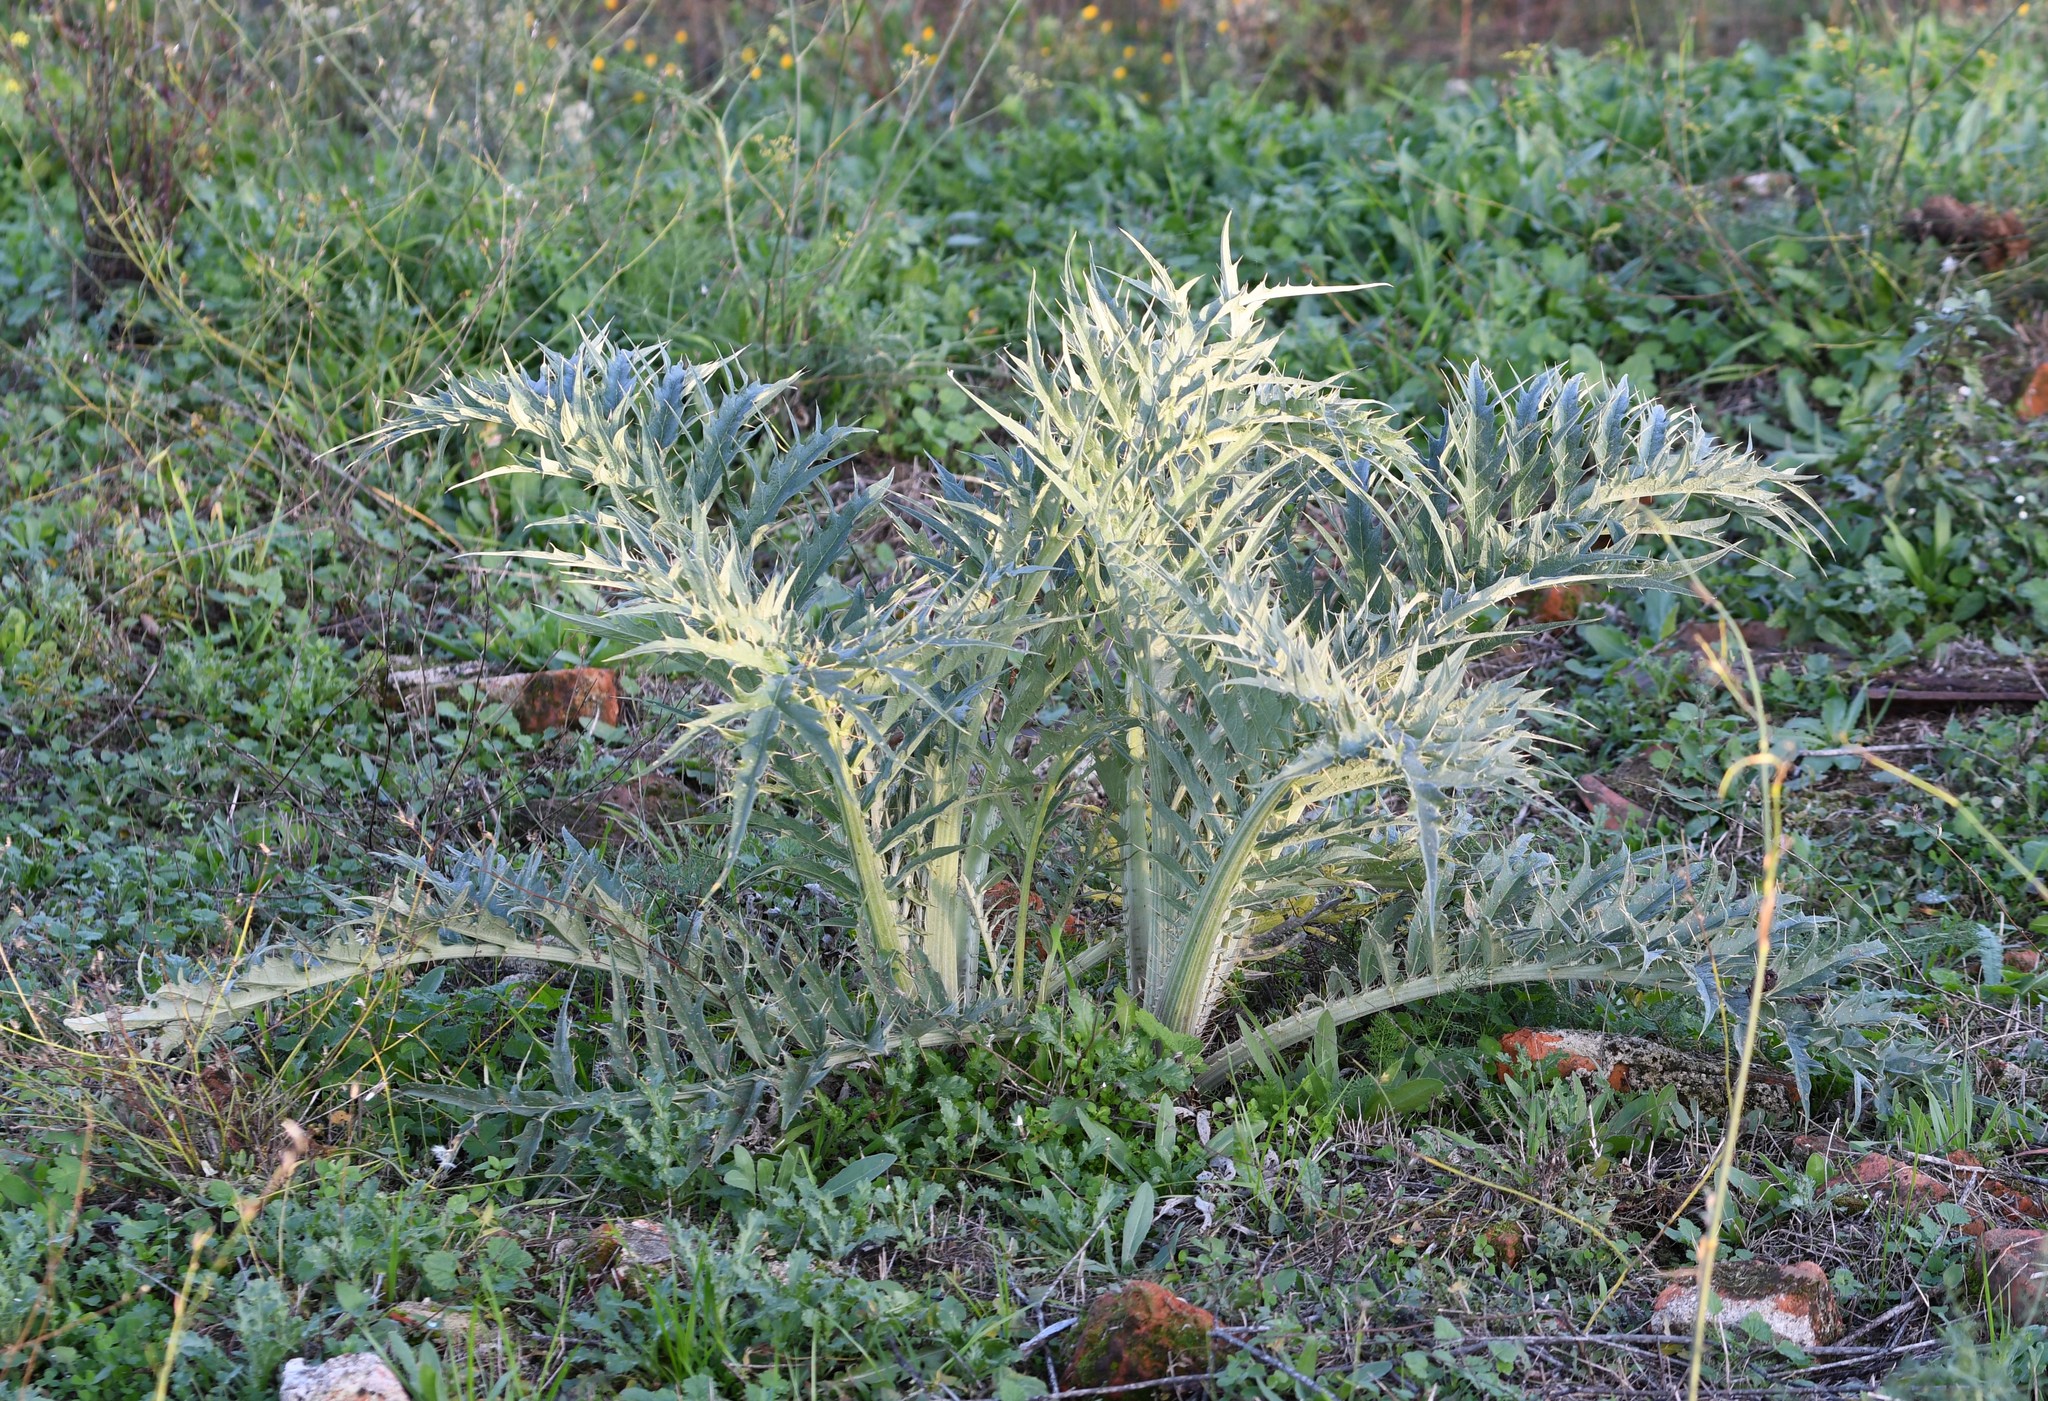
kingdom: Plantae
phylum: Tracheophyta
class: Magnoliopsida
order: Asterales
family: Asteraceae
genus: Cynara
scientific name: Cynara cardunculus
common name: Globe artichoke
